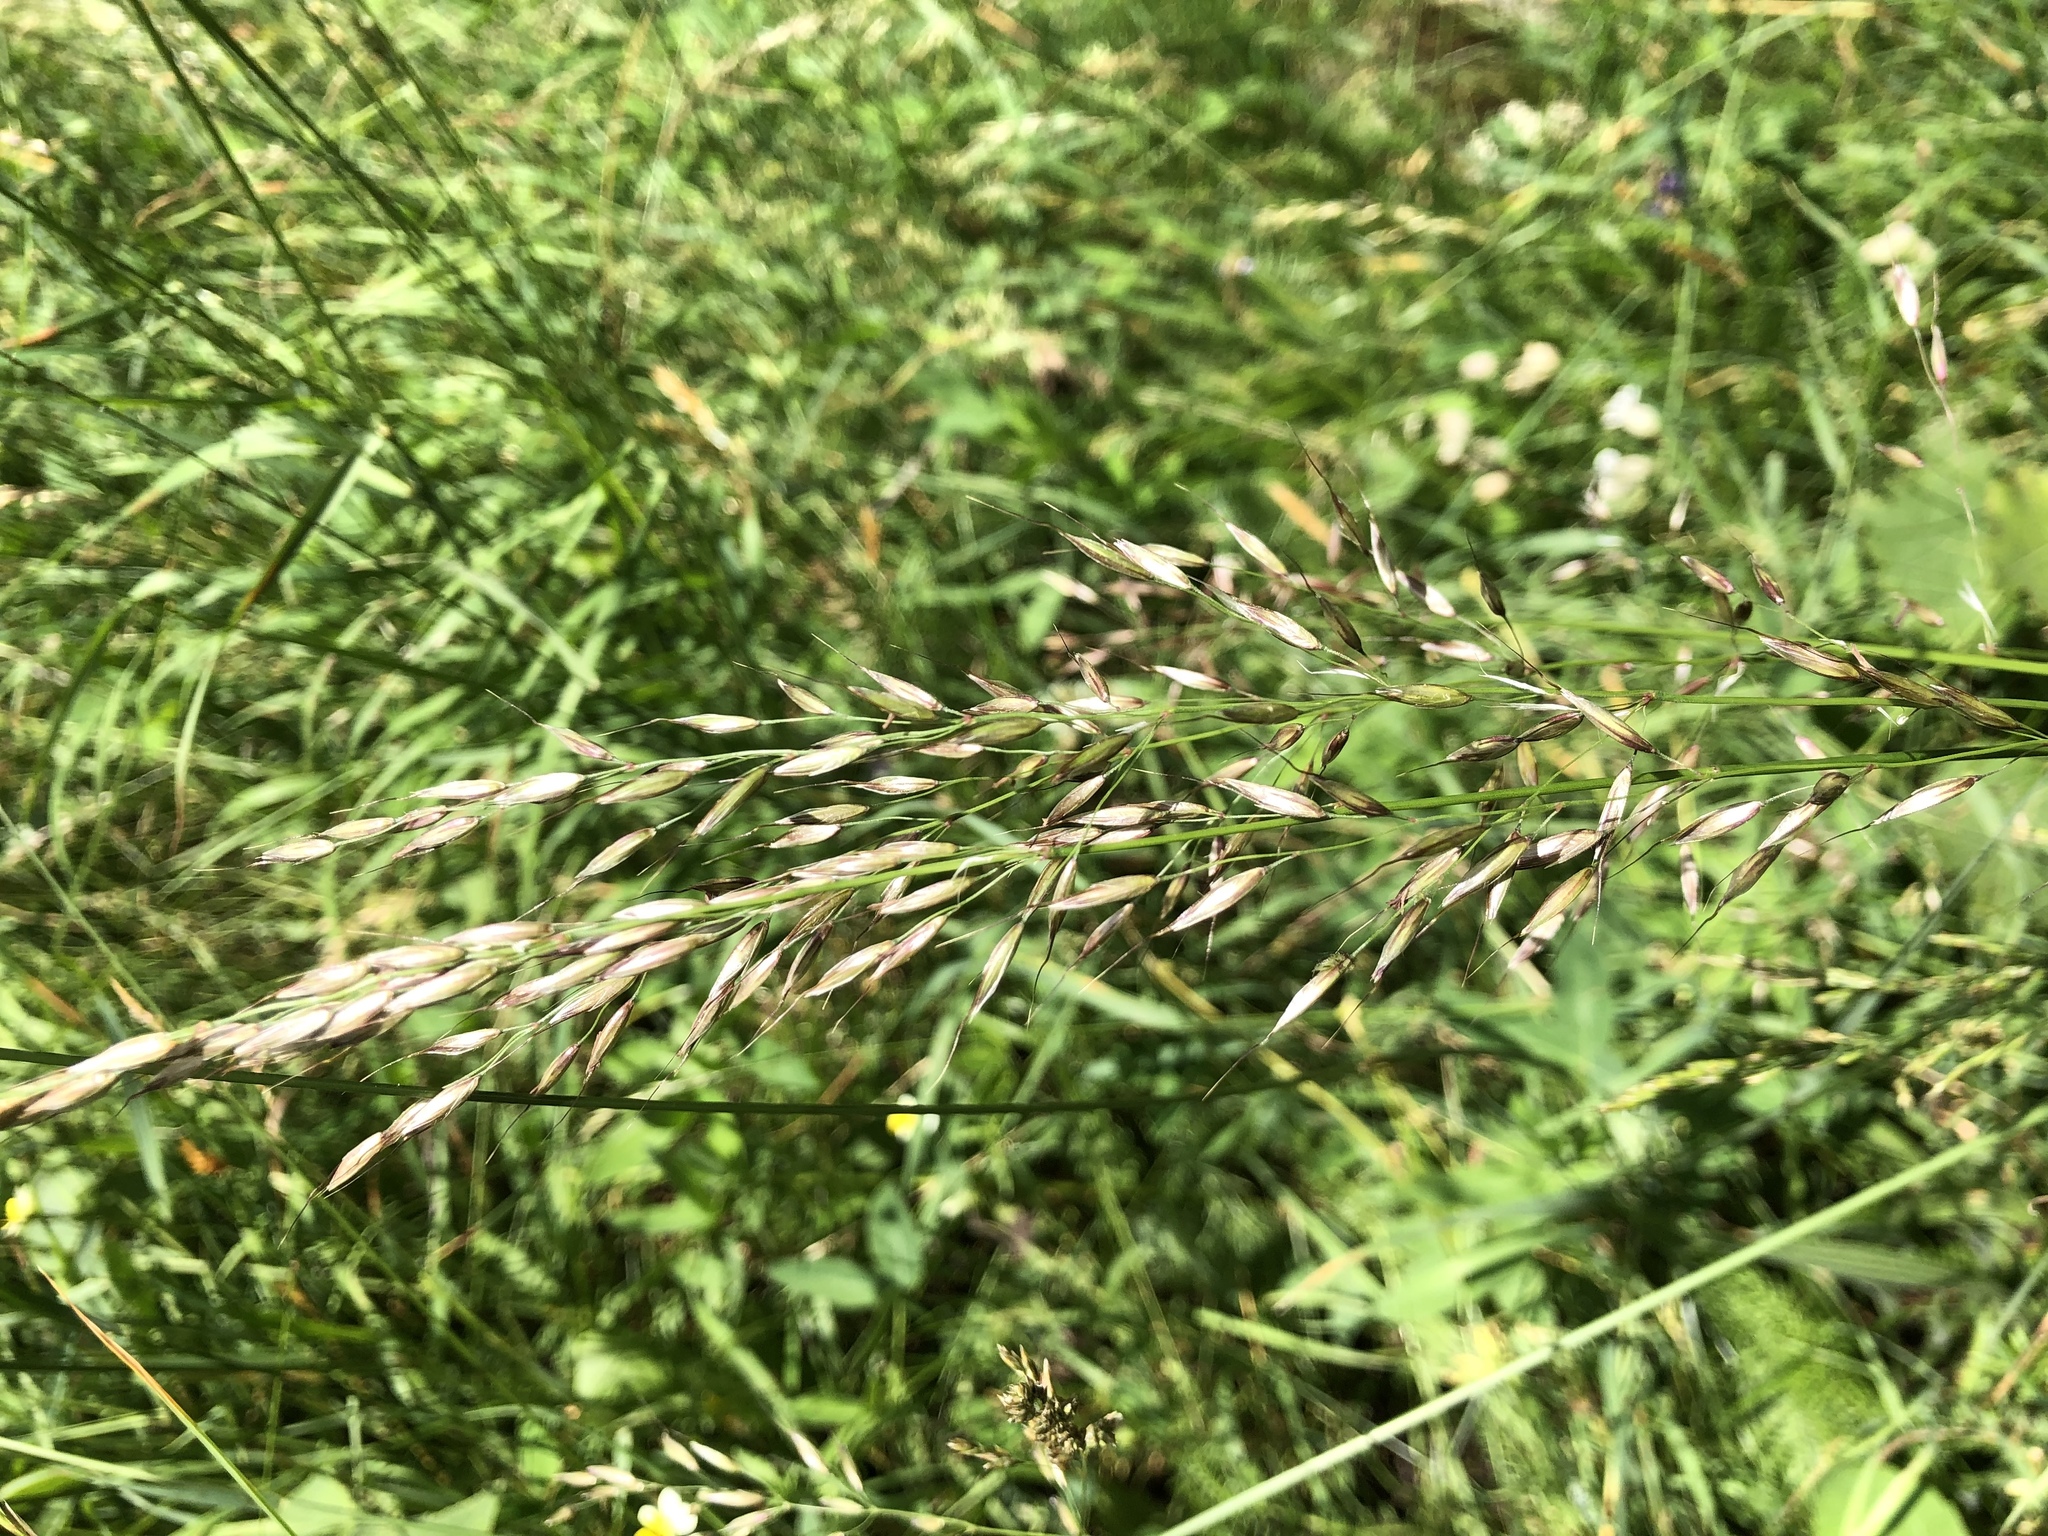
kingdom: Plantae
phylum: Tracheophyta
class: Liliopsida
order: Poales
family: Poaceae
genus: Arrhenatherum
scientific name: Arrhenatherum elatius
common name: Tall oatgrass
